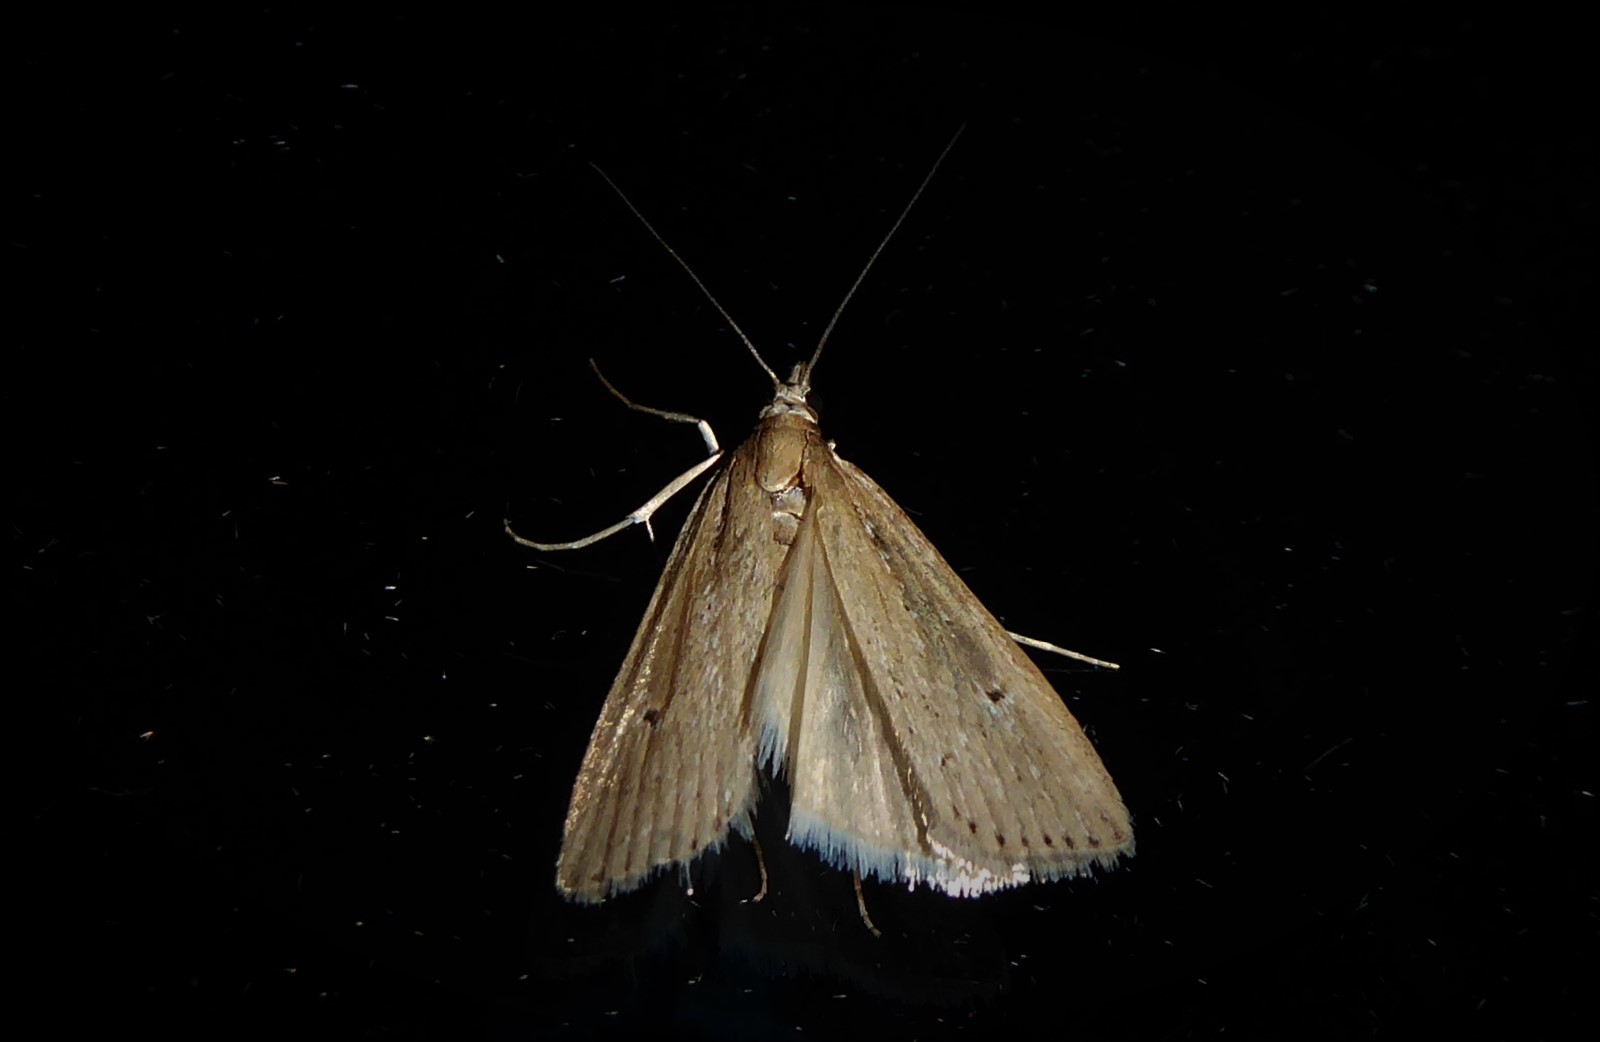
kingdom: Animalia
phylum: Arthropoda
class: Insecta
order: Lepidoptera
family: Crambidae
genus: Eudonia
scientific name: Eudonia sabulosella
